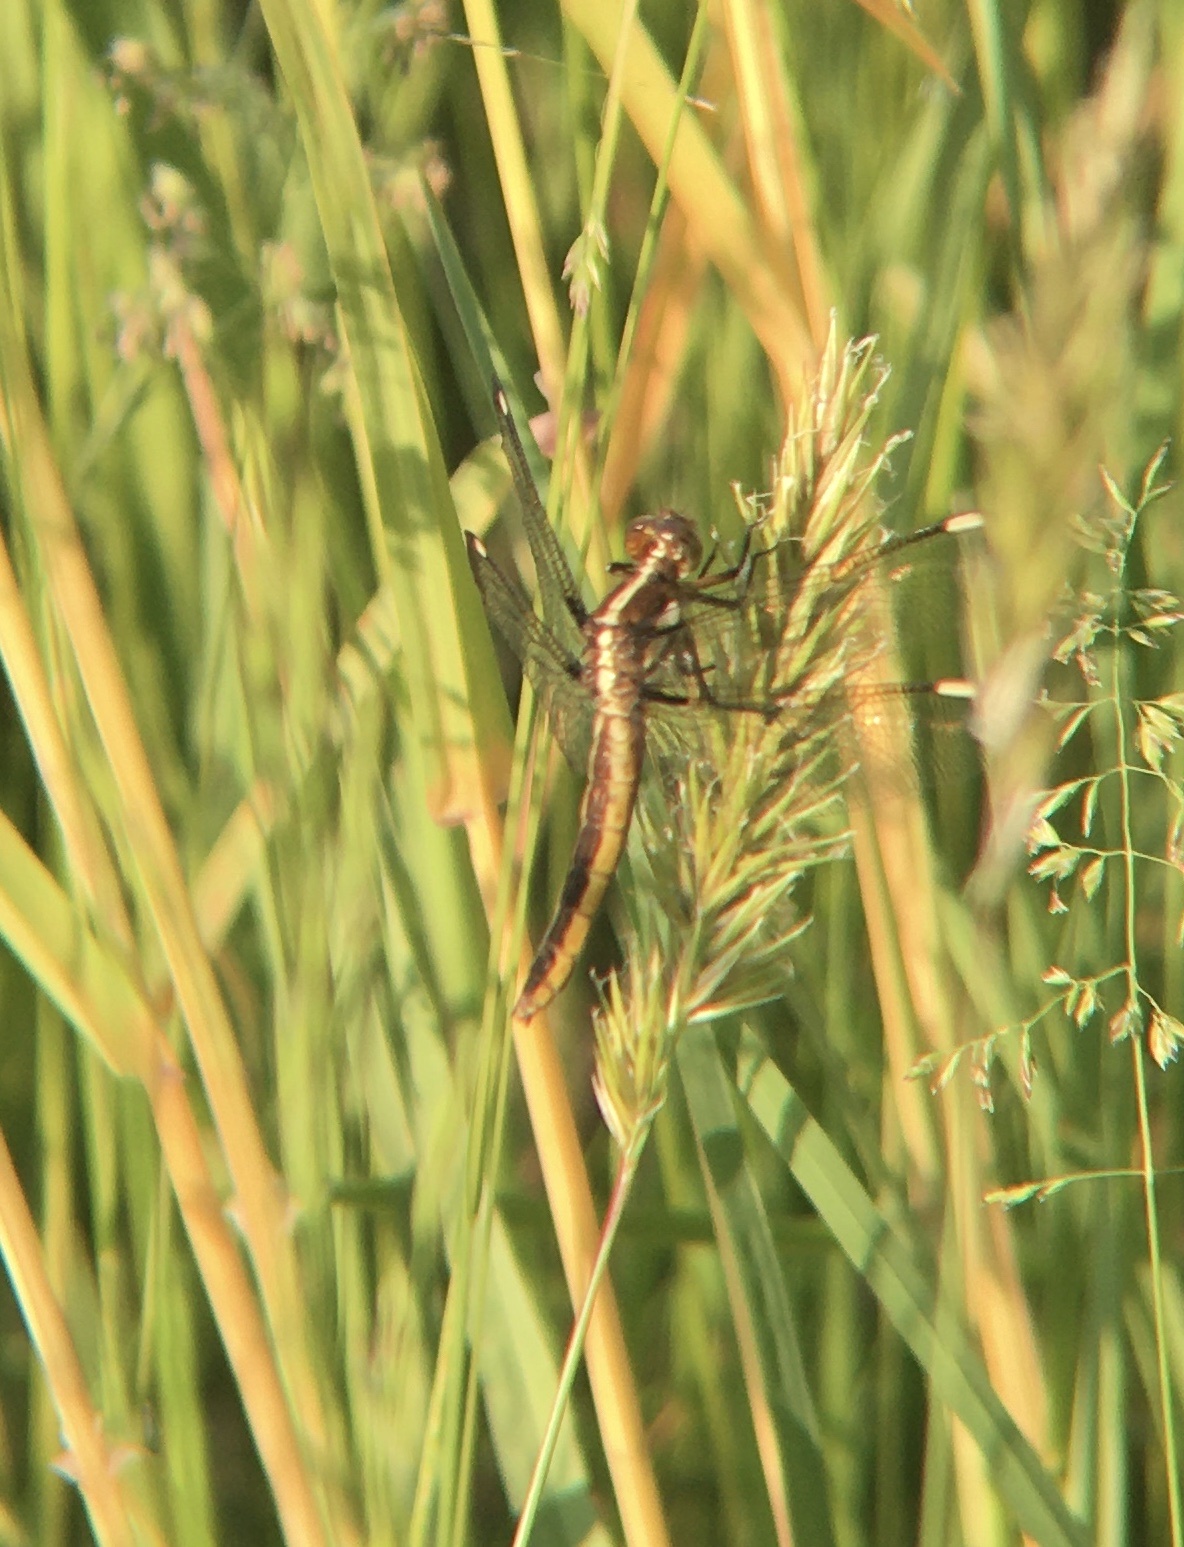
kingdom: Animalia
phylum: Arthropoda
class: Insecta
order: Odonata
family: Libellulidae
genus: Libellula
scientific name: Libellula cyanea
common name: Spangled skimmer
